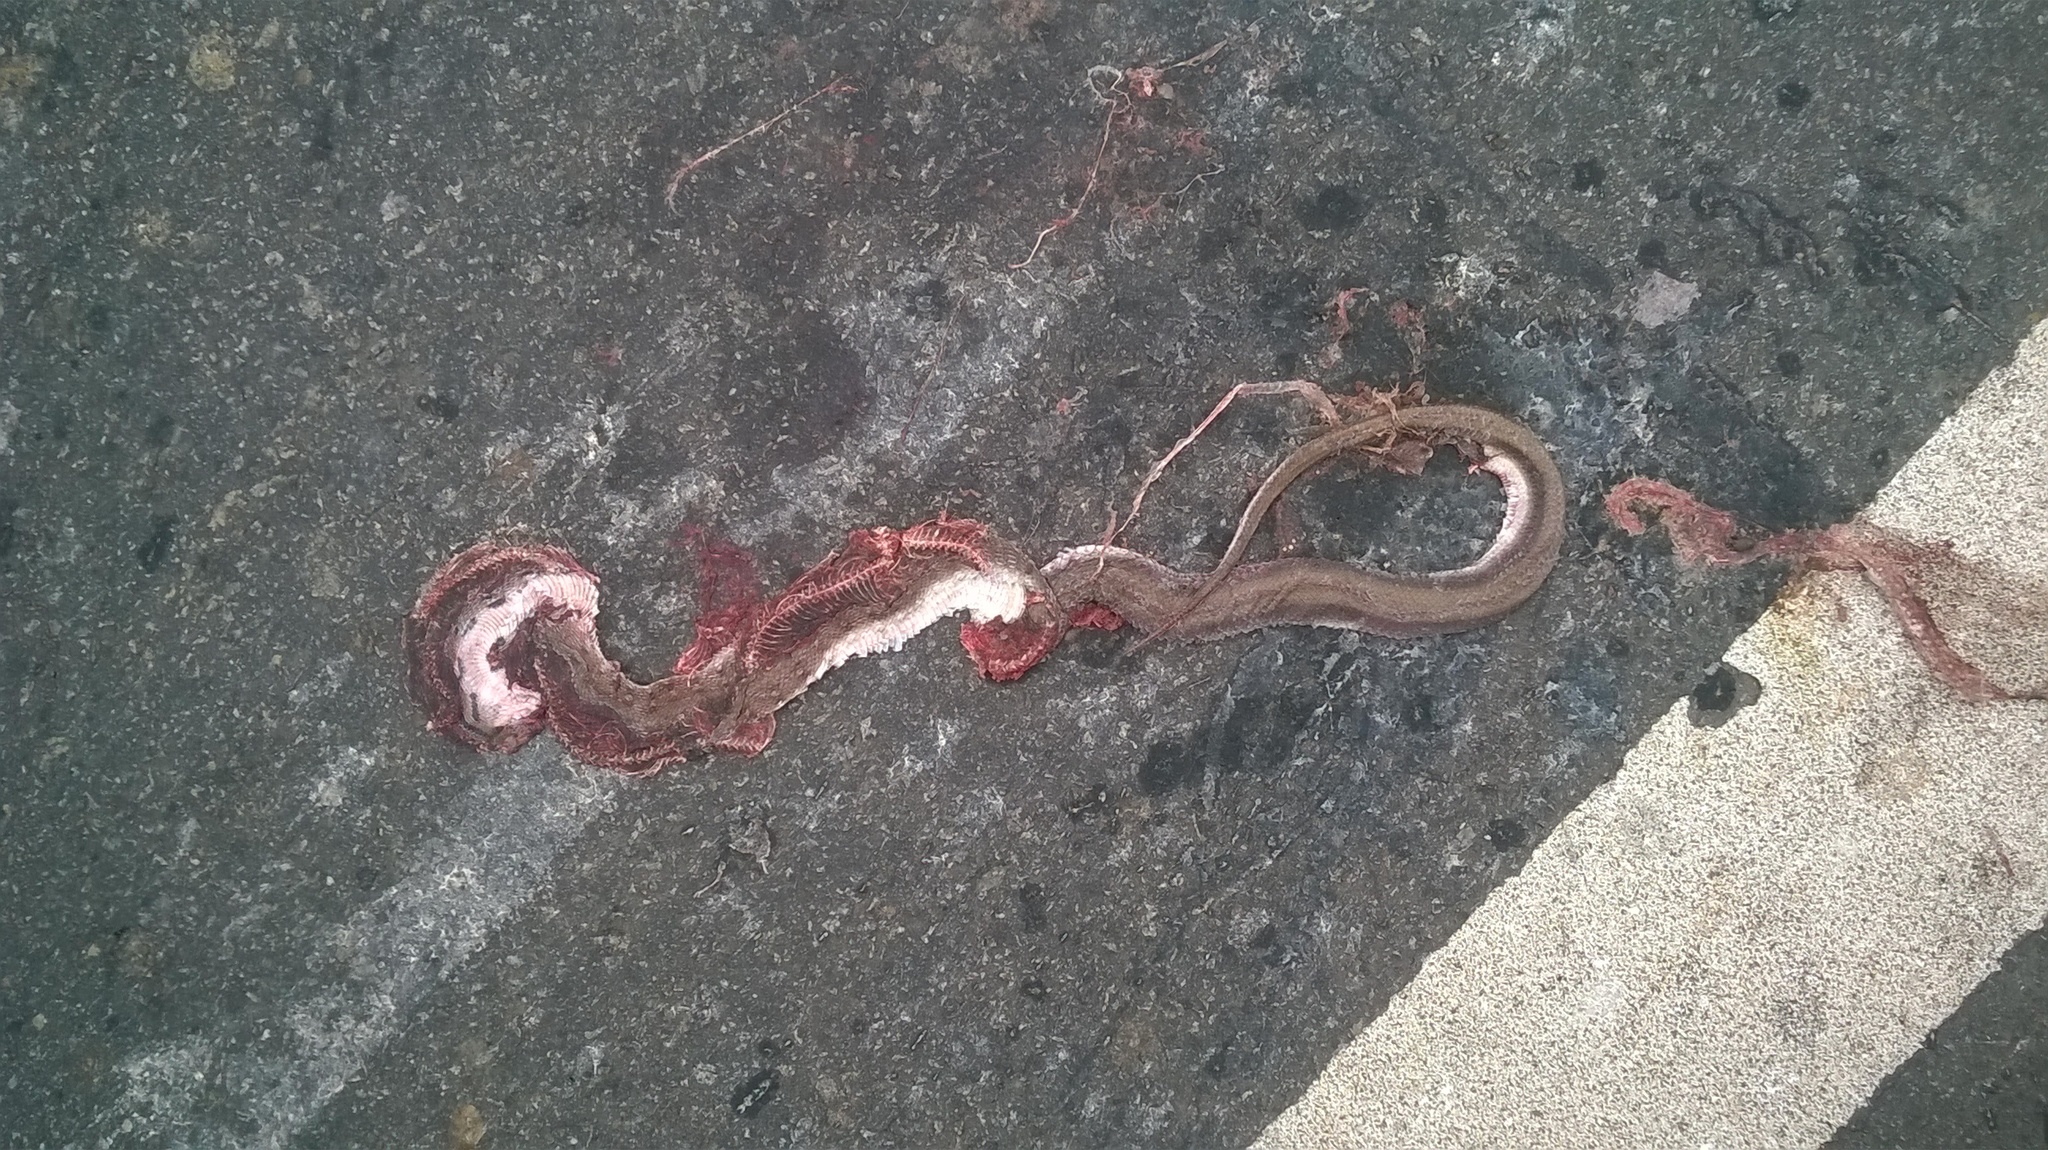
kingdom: Animalia
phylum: Chordata
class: Squamata
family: Colubridae
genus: Coelognathus
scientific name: Coelognathus helena
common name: Trinket snake
